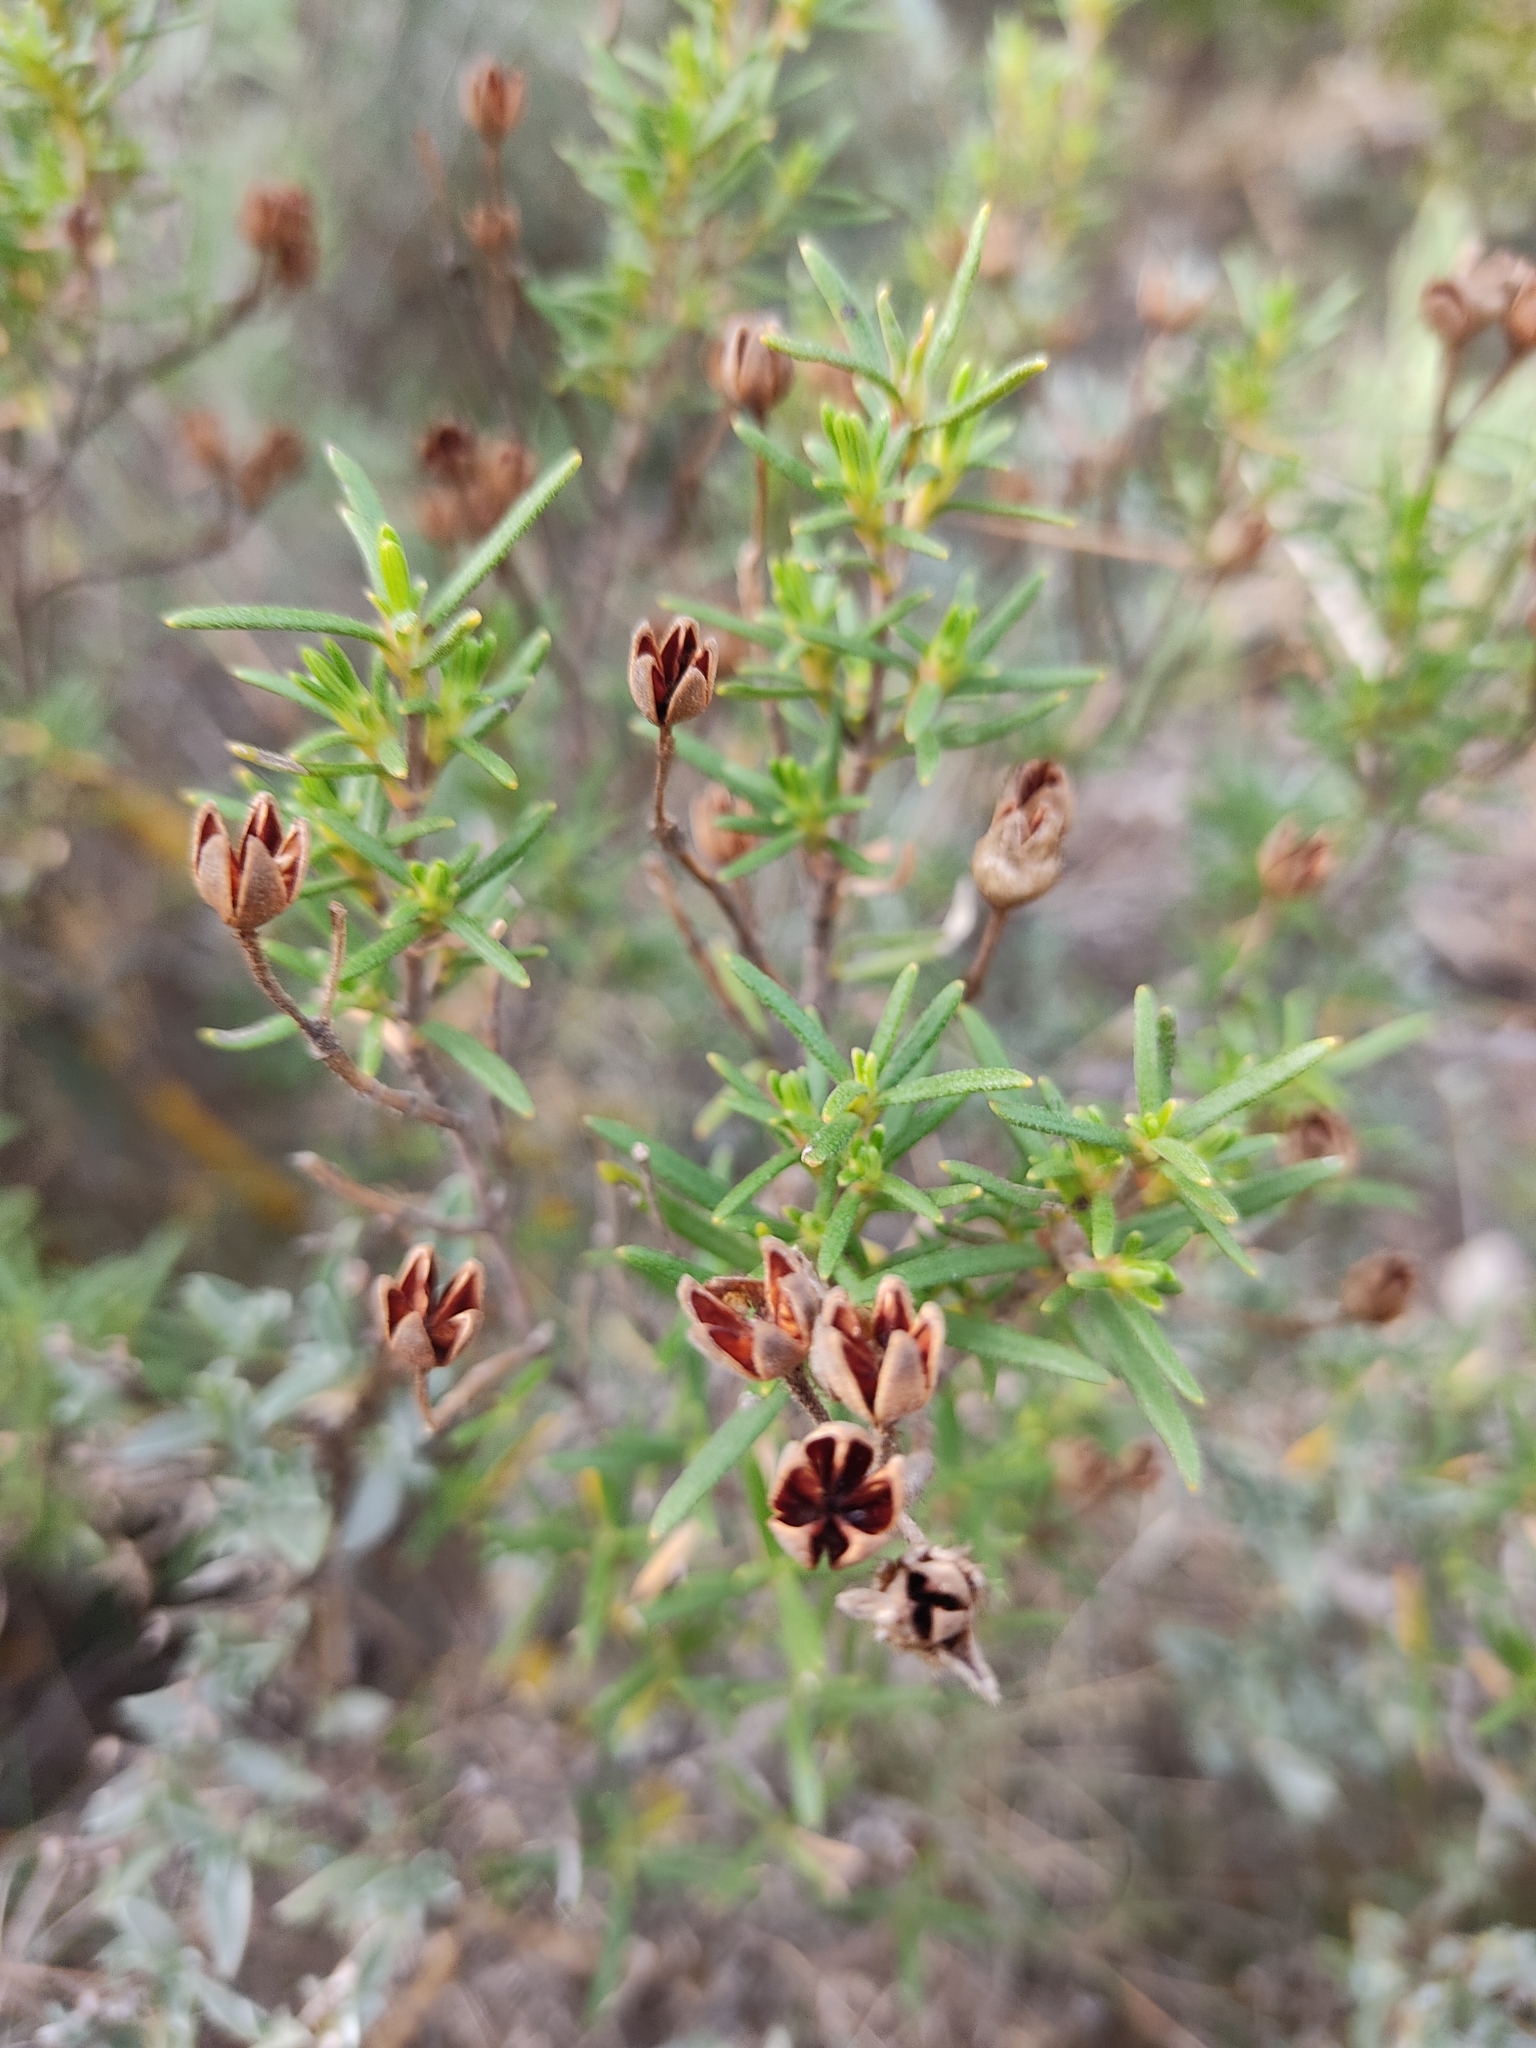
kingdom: Plantae
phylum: Tracheophyta
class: Magnoliopsida
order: Malvales
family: Cistaceae
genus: Cistus
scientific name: Cistus clusii
